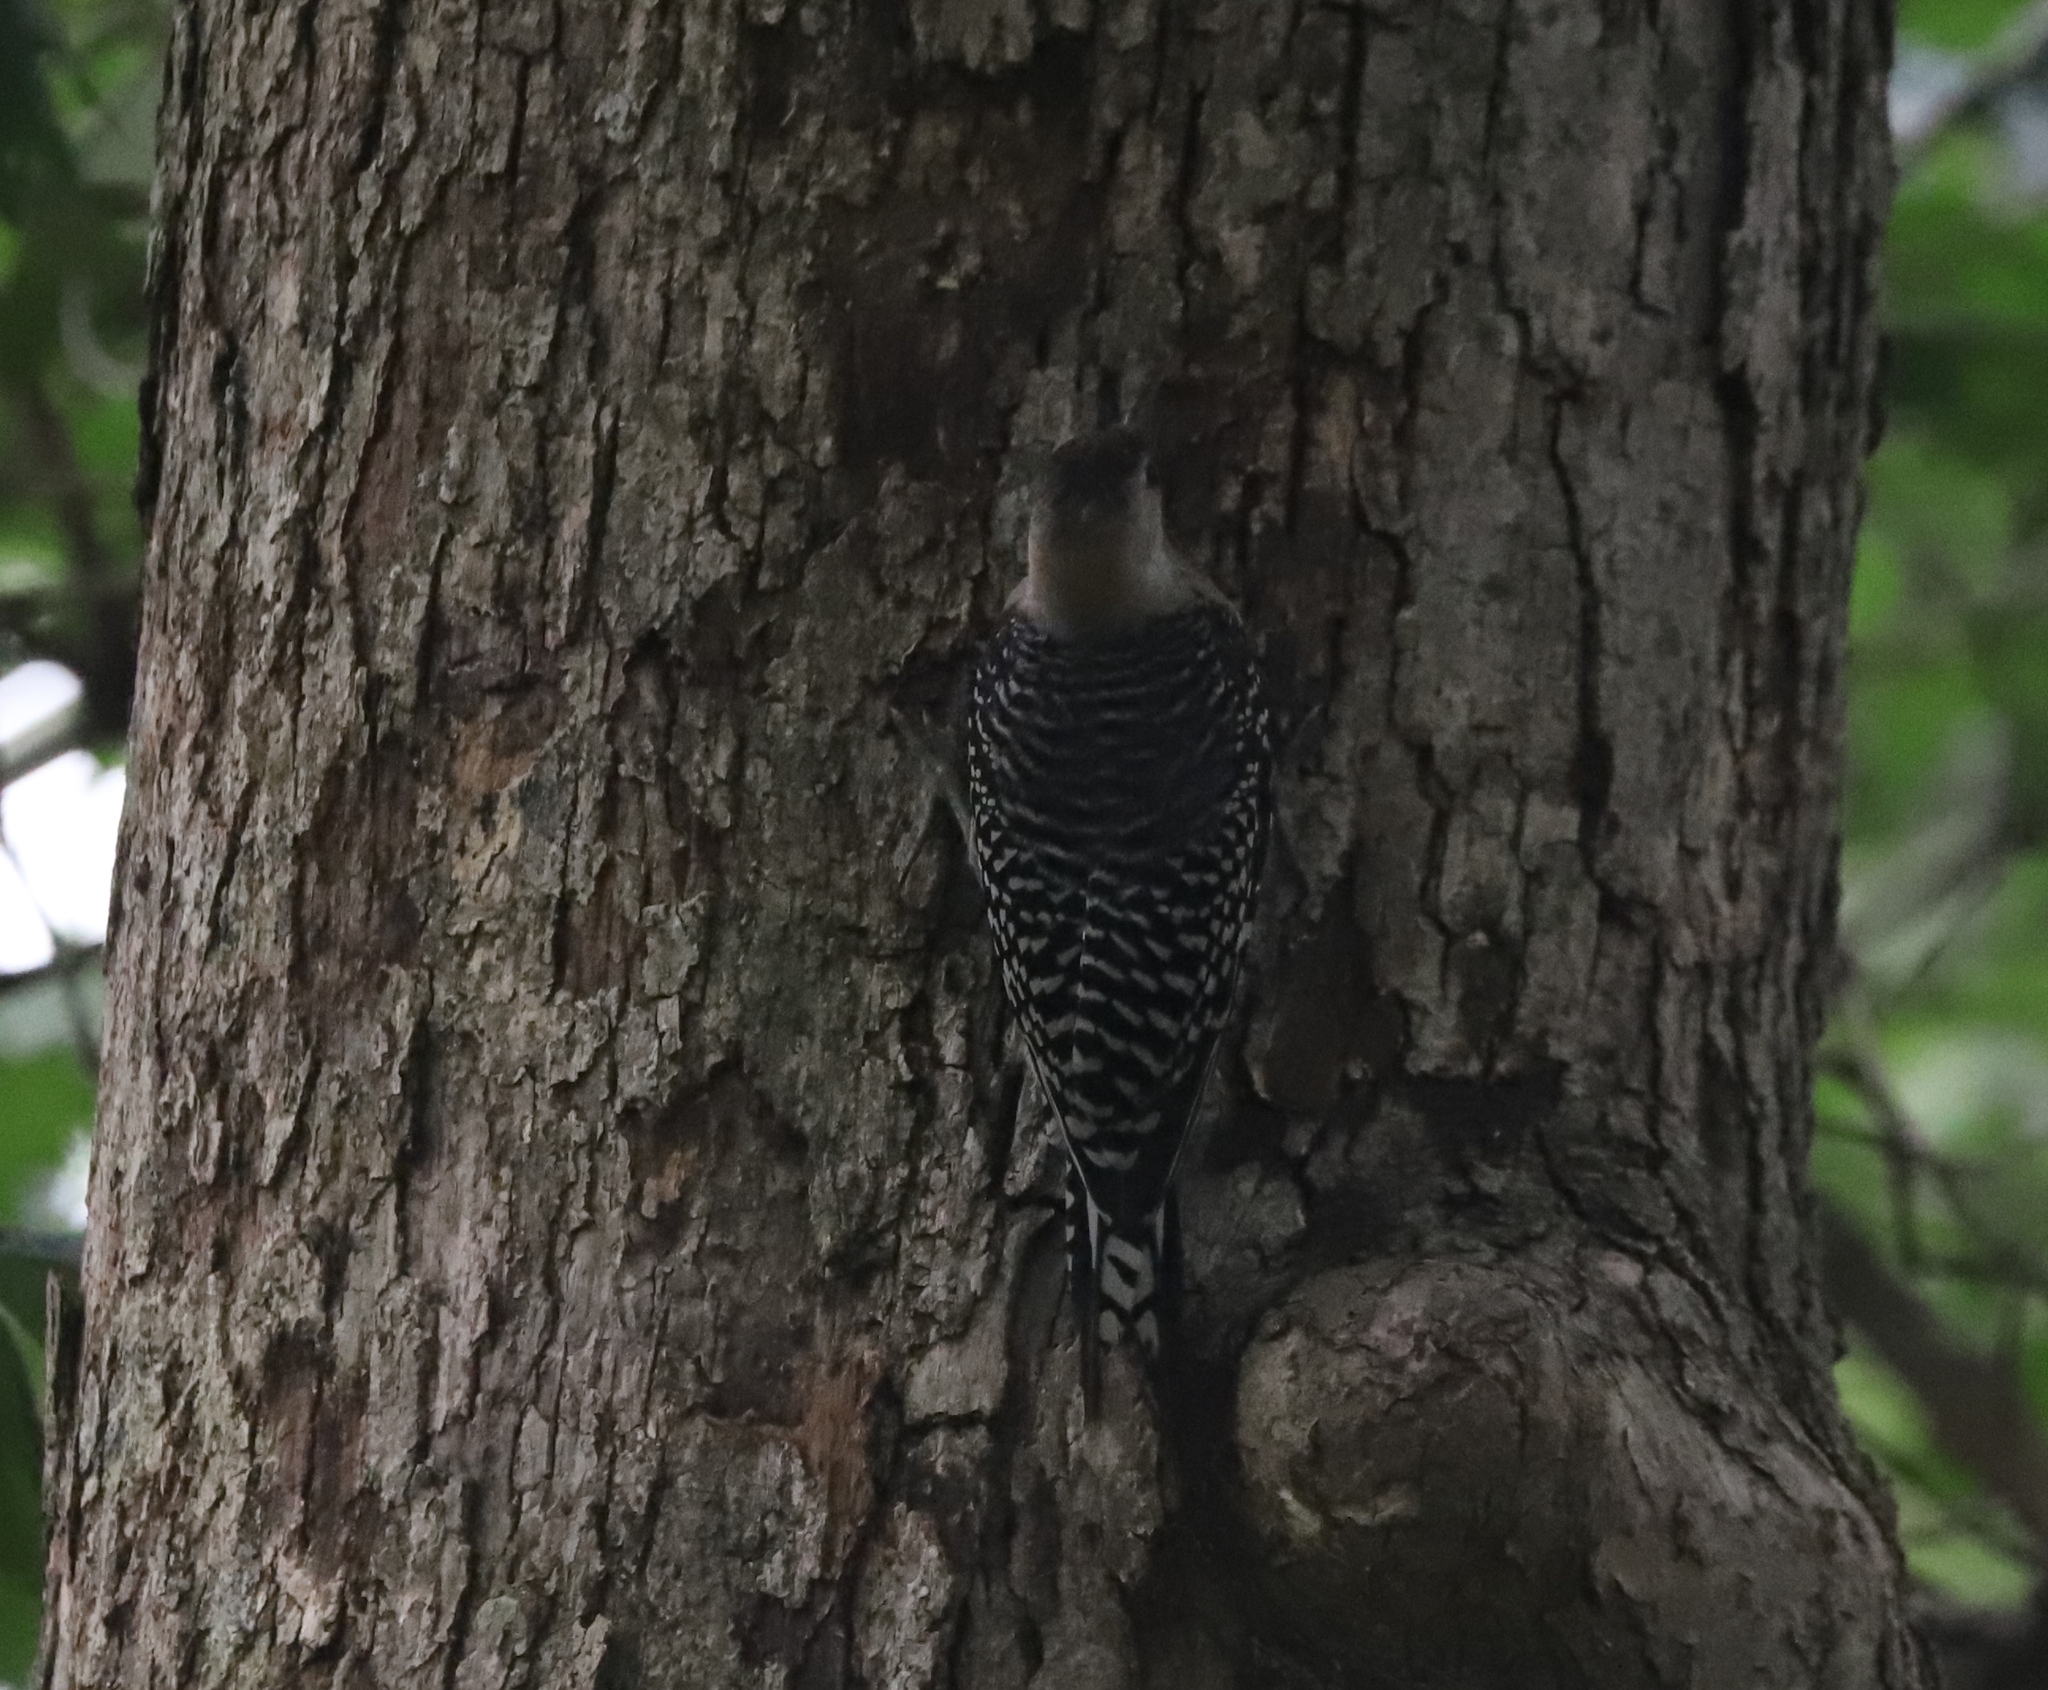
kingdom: Animalia
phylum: Chordata
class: Aves
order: Piciformes
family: Picidae
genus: Melanerpes
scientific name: Melanerpes carolinus
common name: Red-bellied woodpecker
